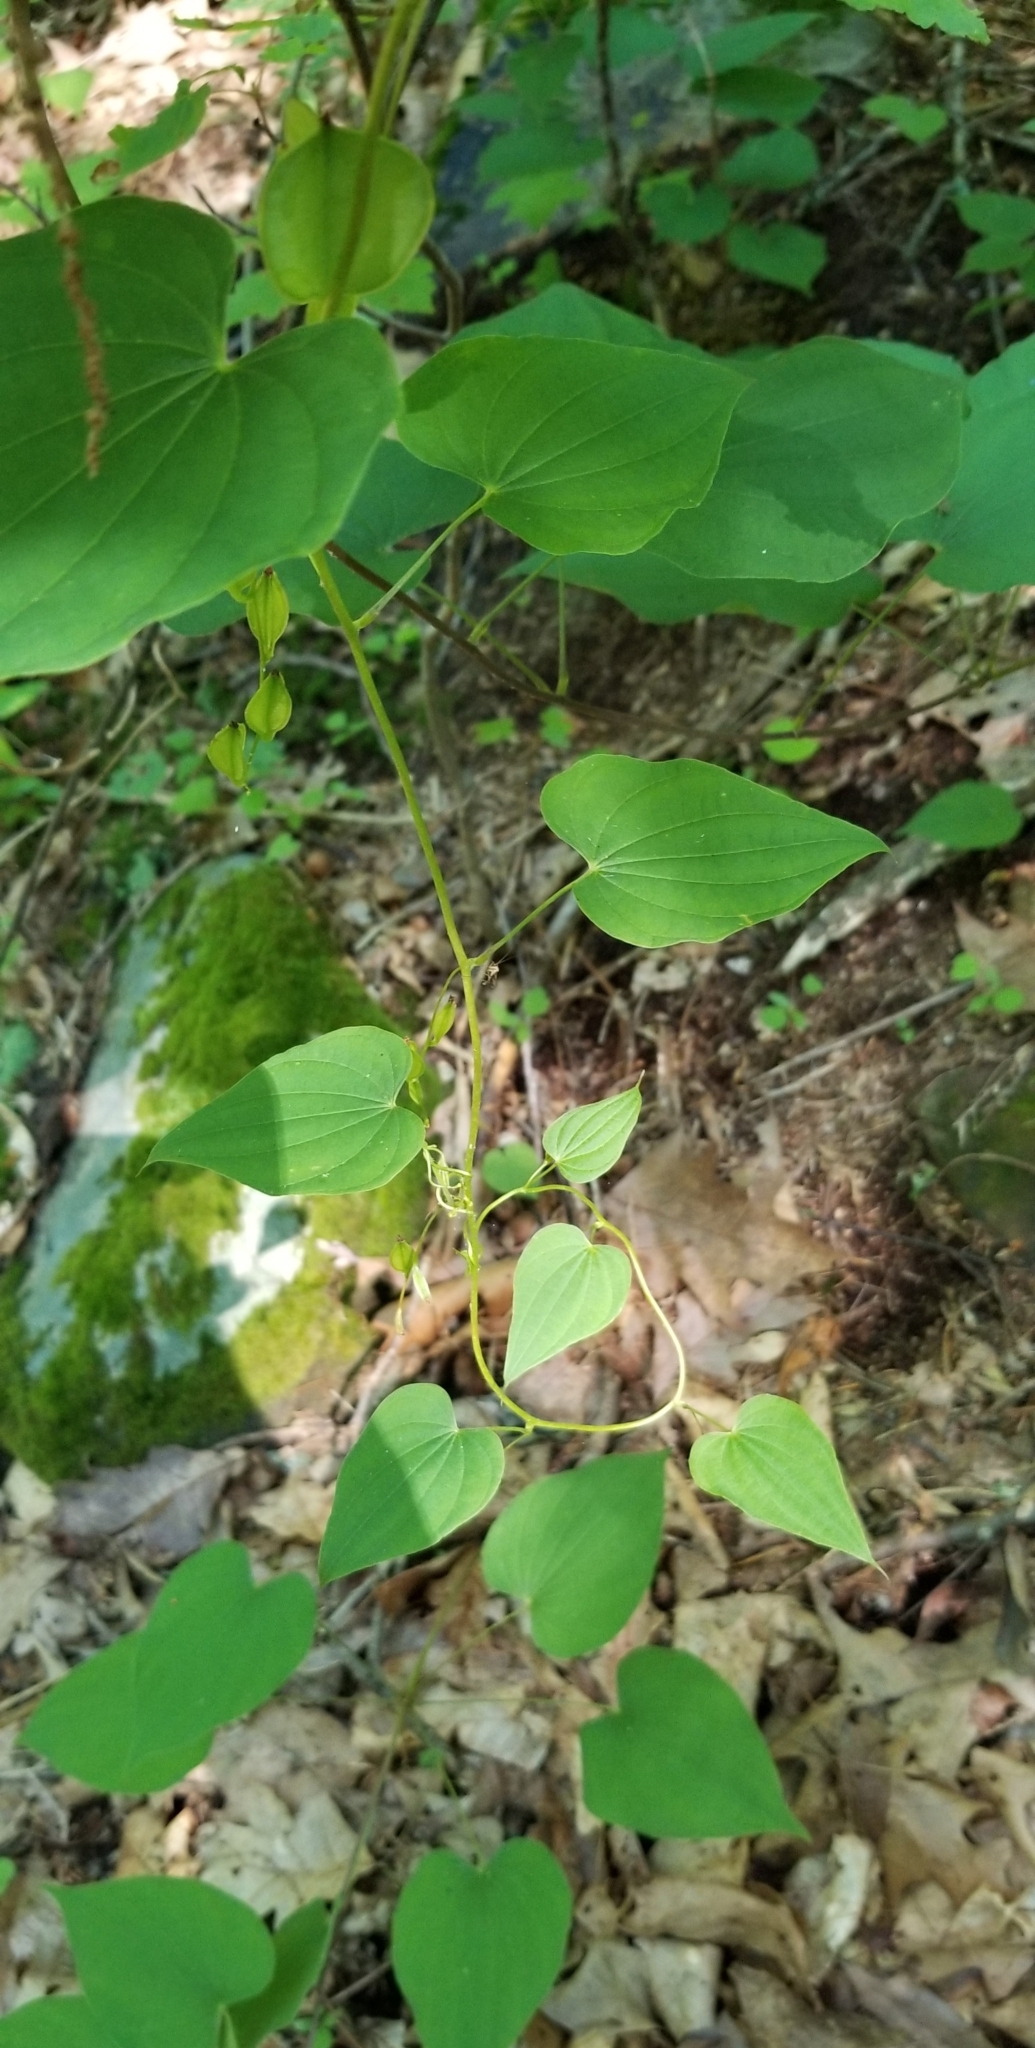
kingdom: Plantae
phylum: Tracheophyta
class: Liliopsida
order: Dioscoreales
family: Dioscoreaceae
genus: Dioscorea
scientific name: Dioscorea villosa
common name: Wild yam
